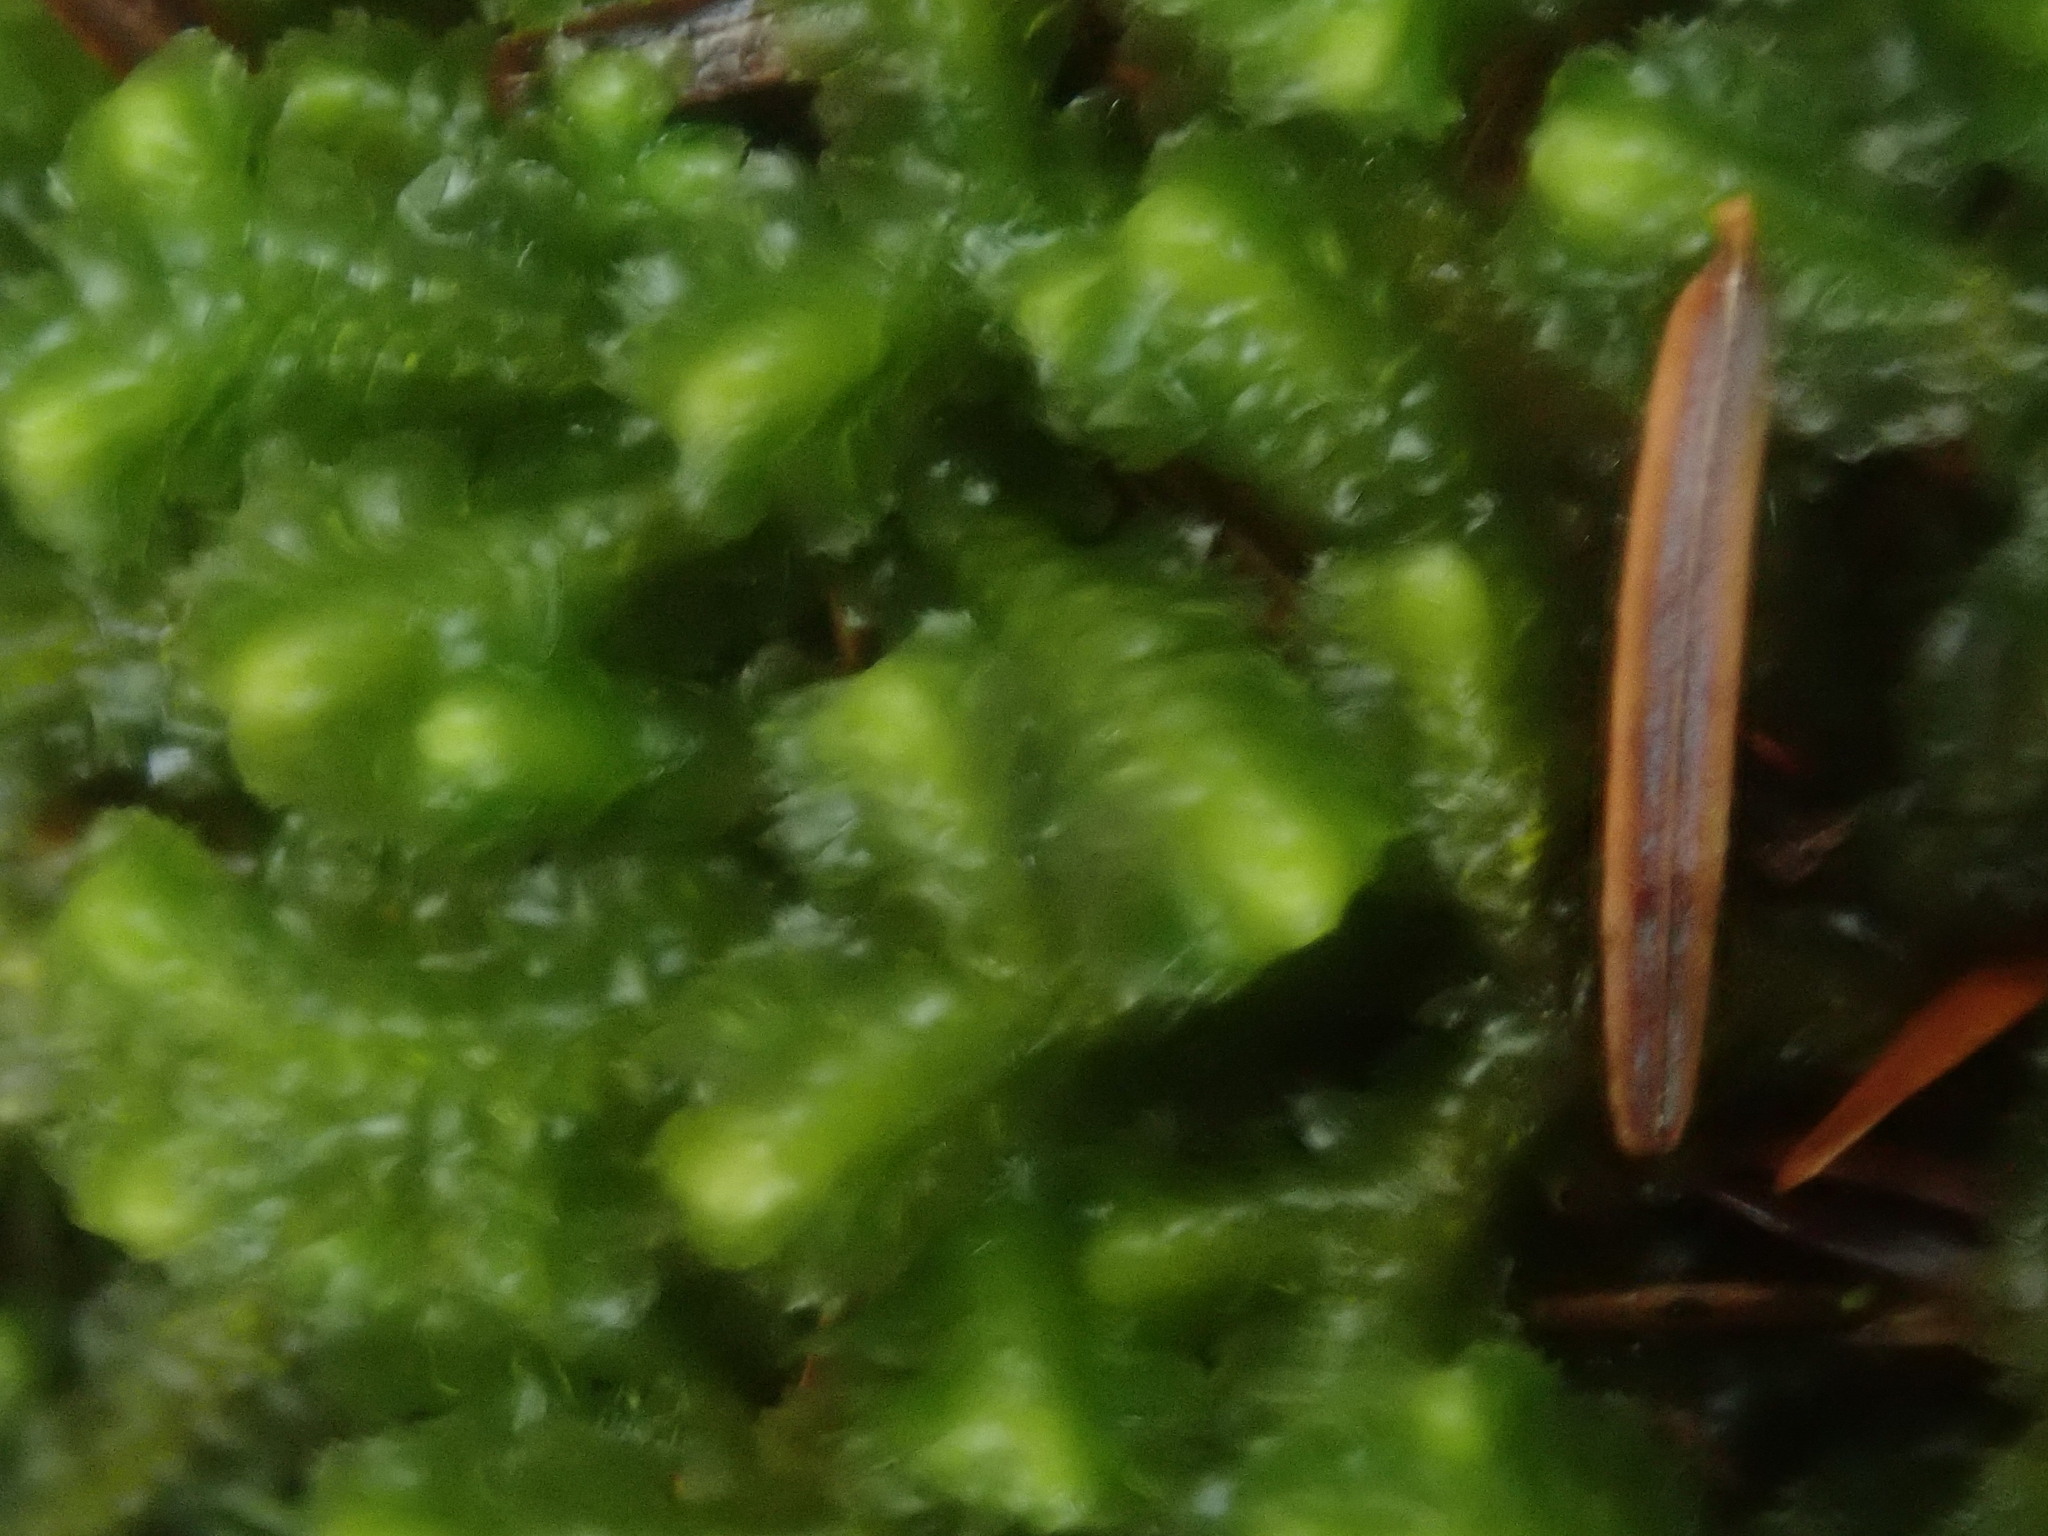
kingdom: Plantae
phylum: Marchantiophyta
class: Jungermanniopsida
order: Jungermanniales
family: Lepidoziaceae
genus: Bazzania
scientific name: Bazzania trilobata
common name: Three-lobed whipwort
